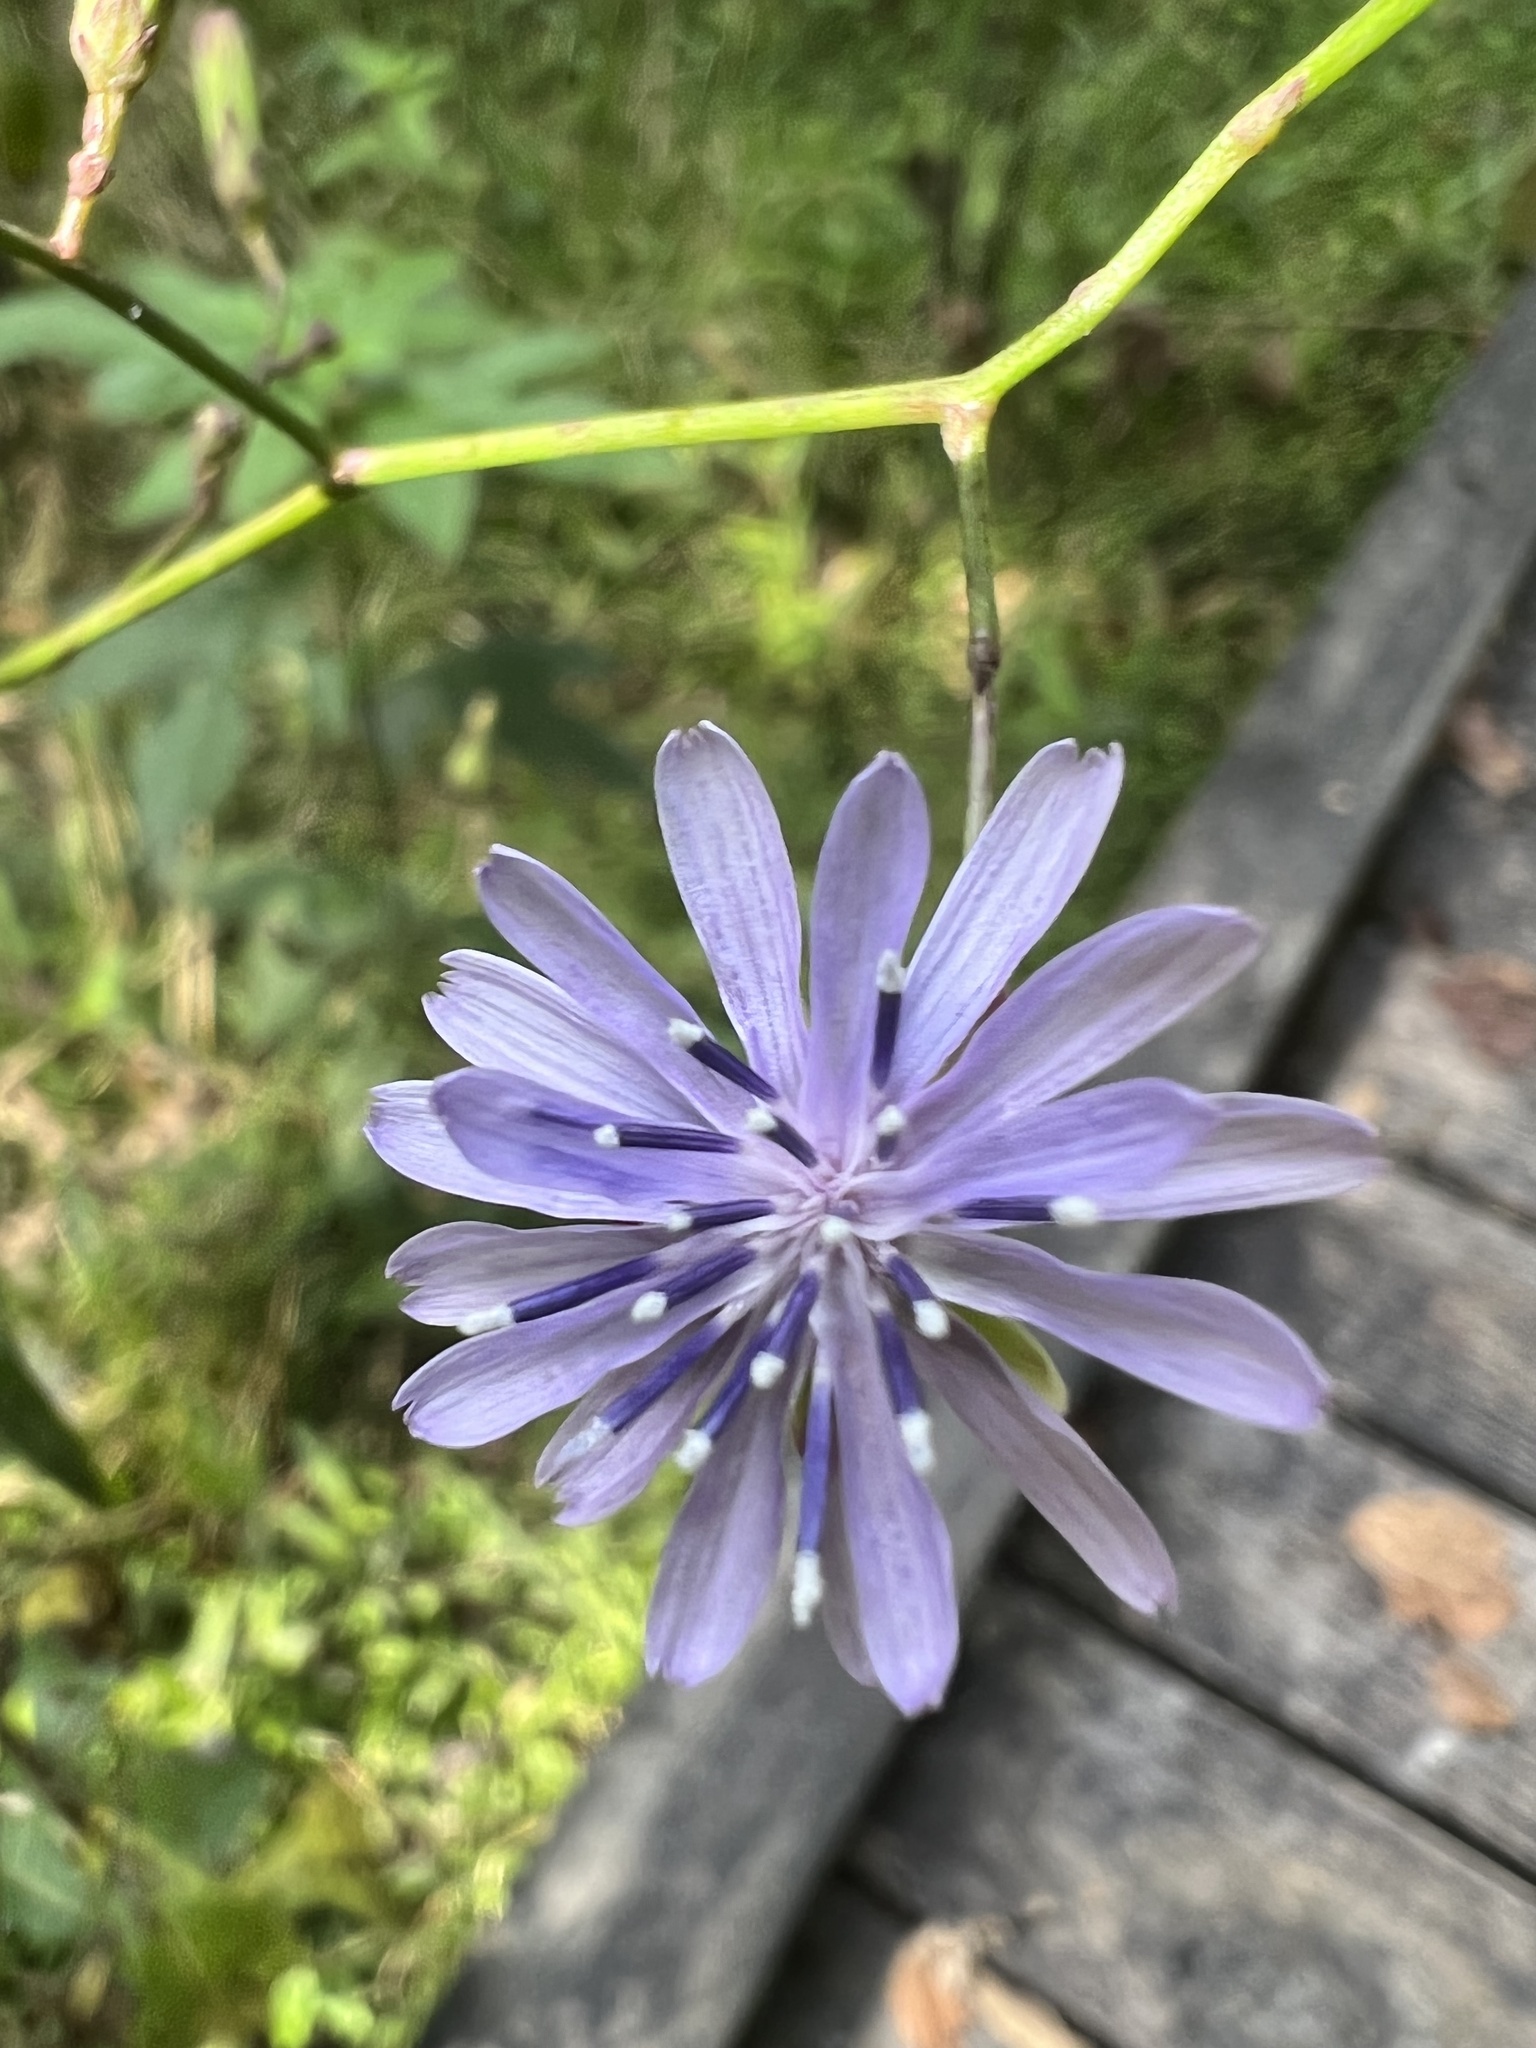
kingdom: Plantae
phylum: Tracheophyta
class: Magnoliopsida
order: Asterales
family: Asteraceae
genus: Lactuca
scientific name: Lactuca floridana
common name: Woodland lettuce
